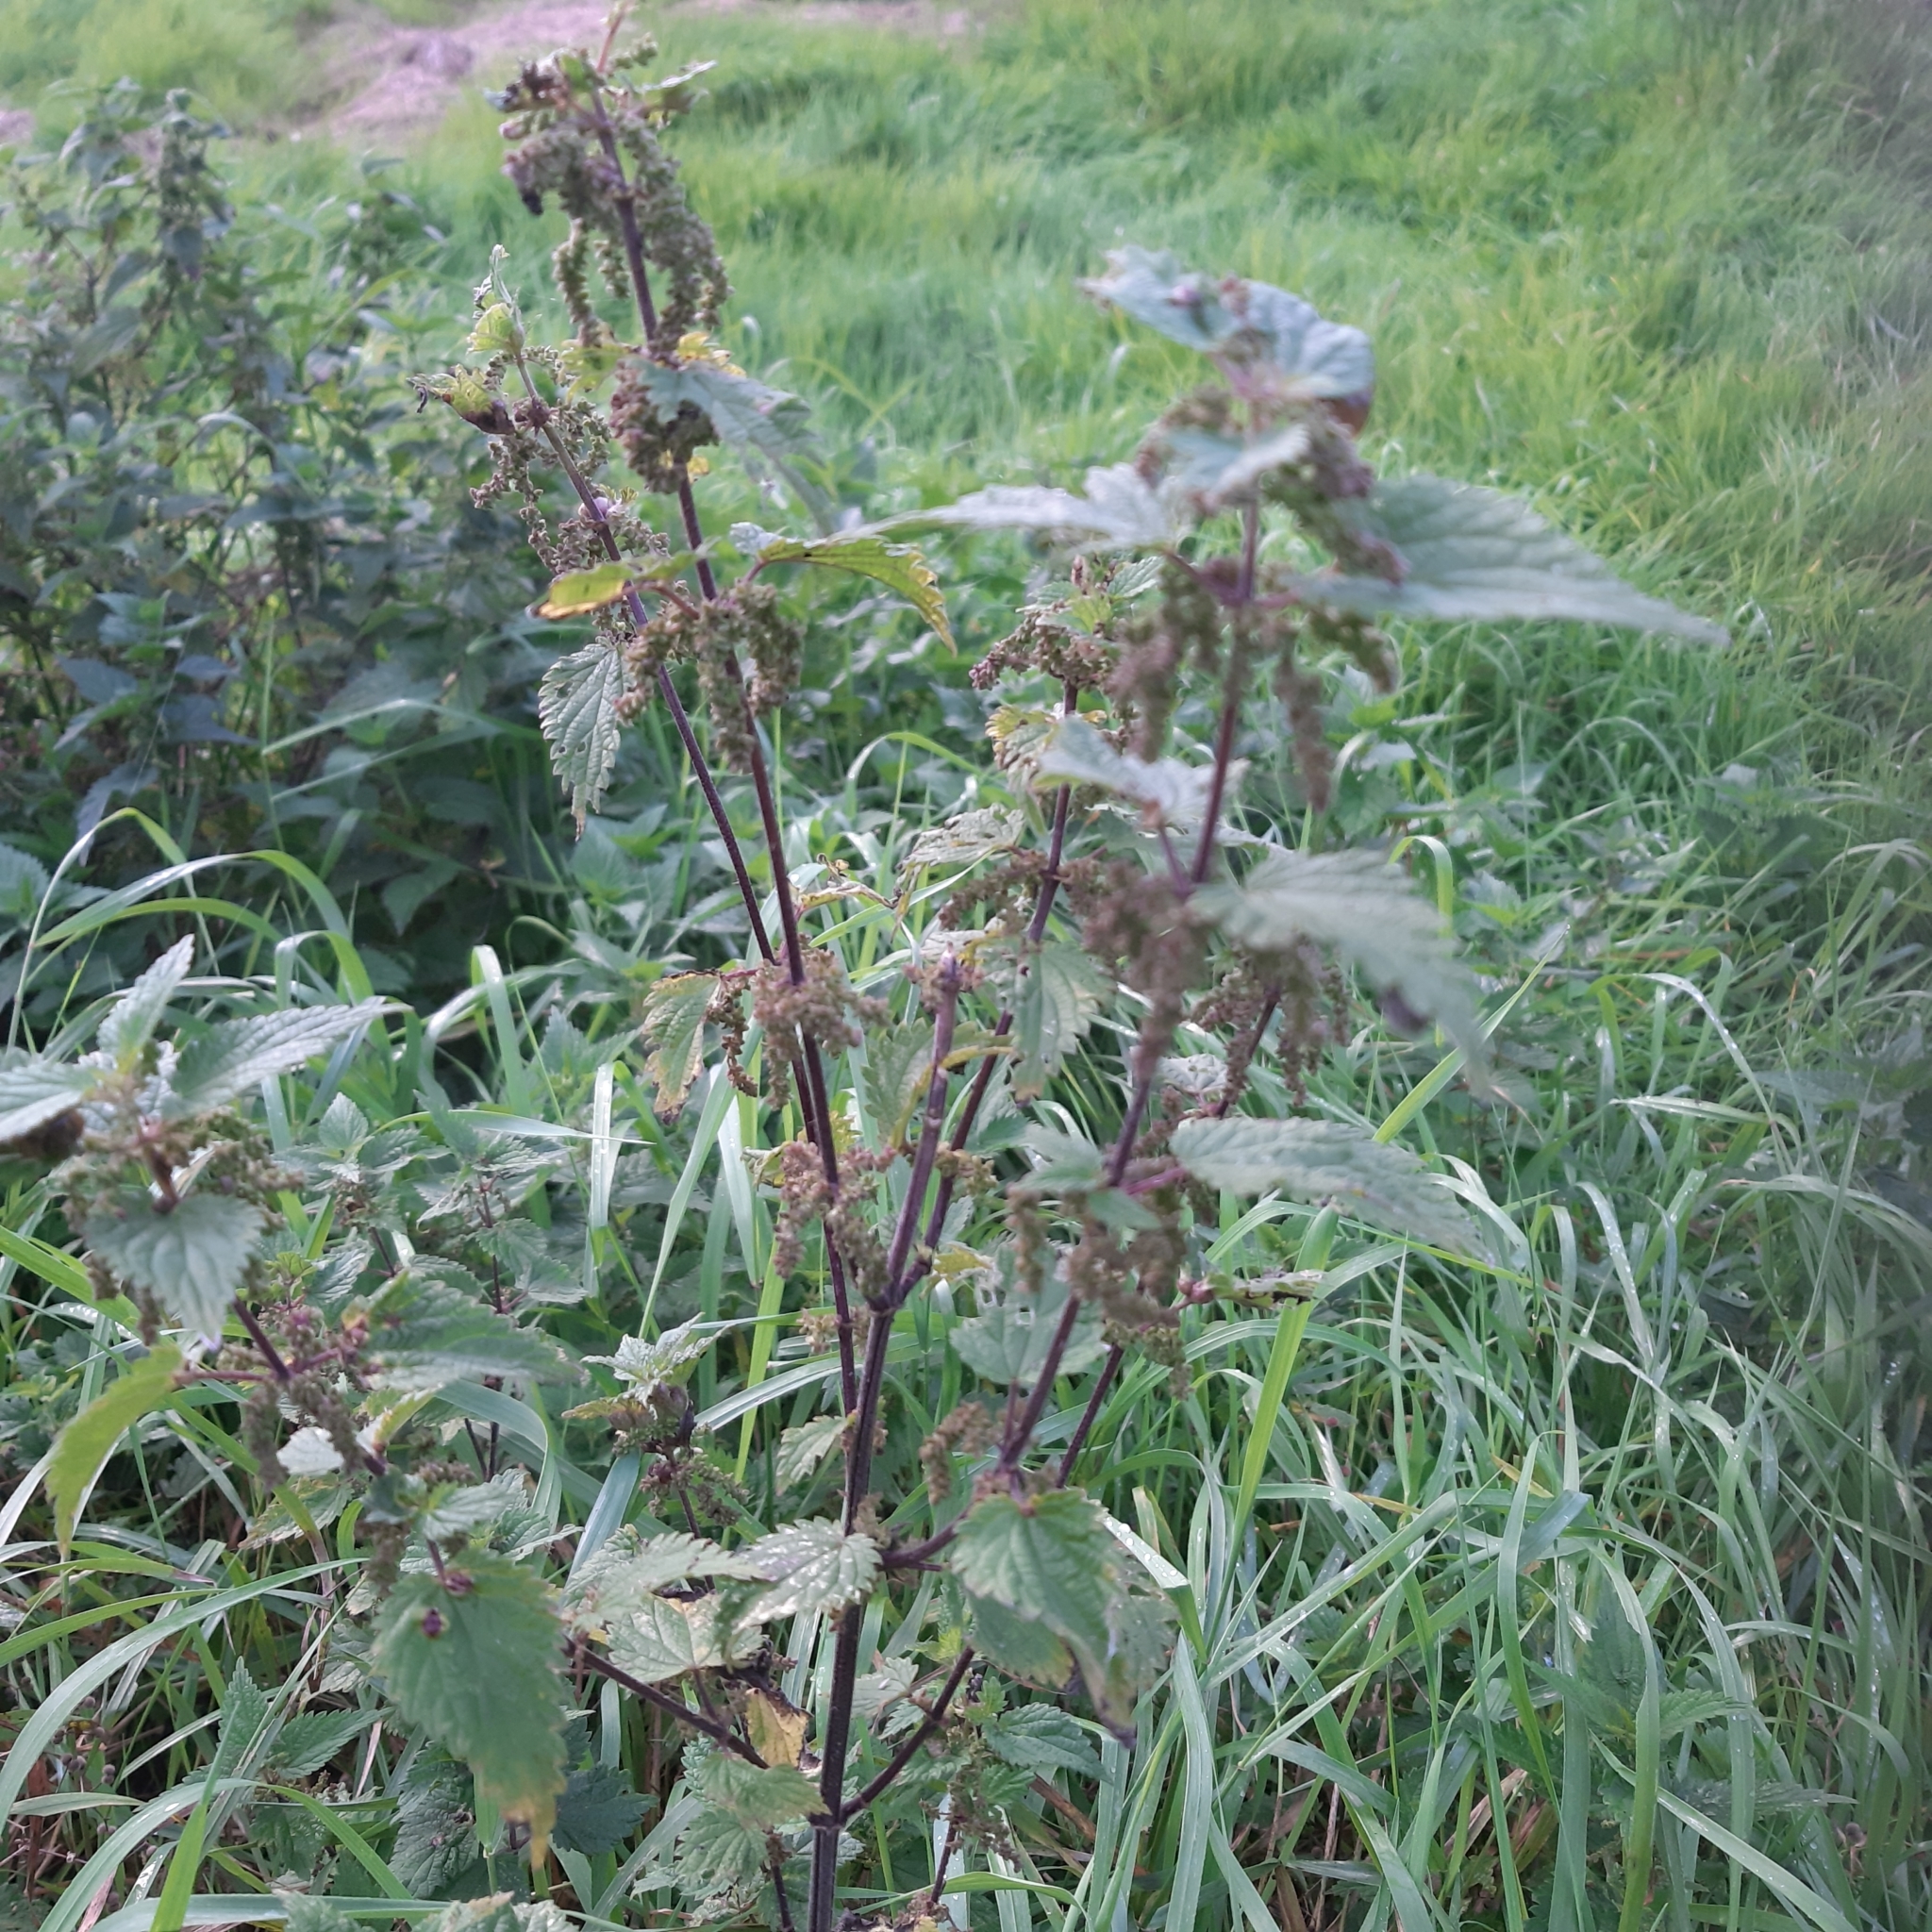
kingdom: Plantae
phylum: Tracheophyta
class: Magnoliopsida
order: Rosales
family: Urticaceae
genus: Urtica
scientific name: Urtica dioica
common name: Common nettle
